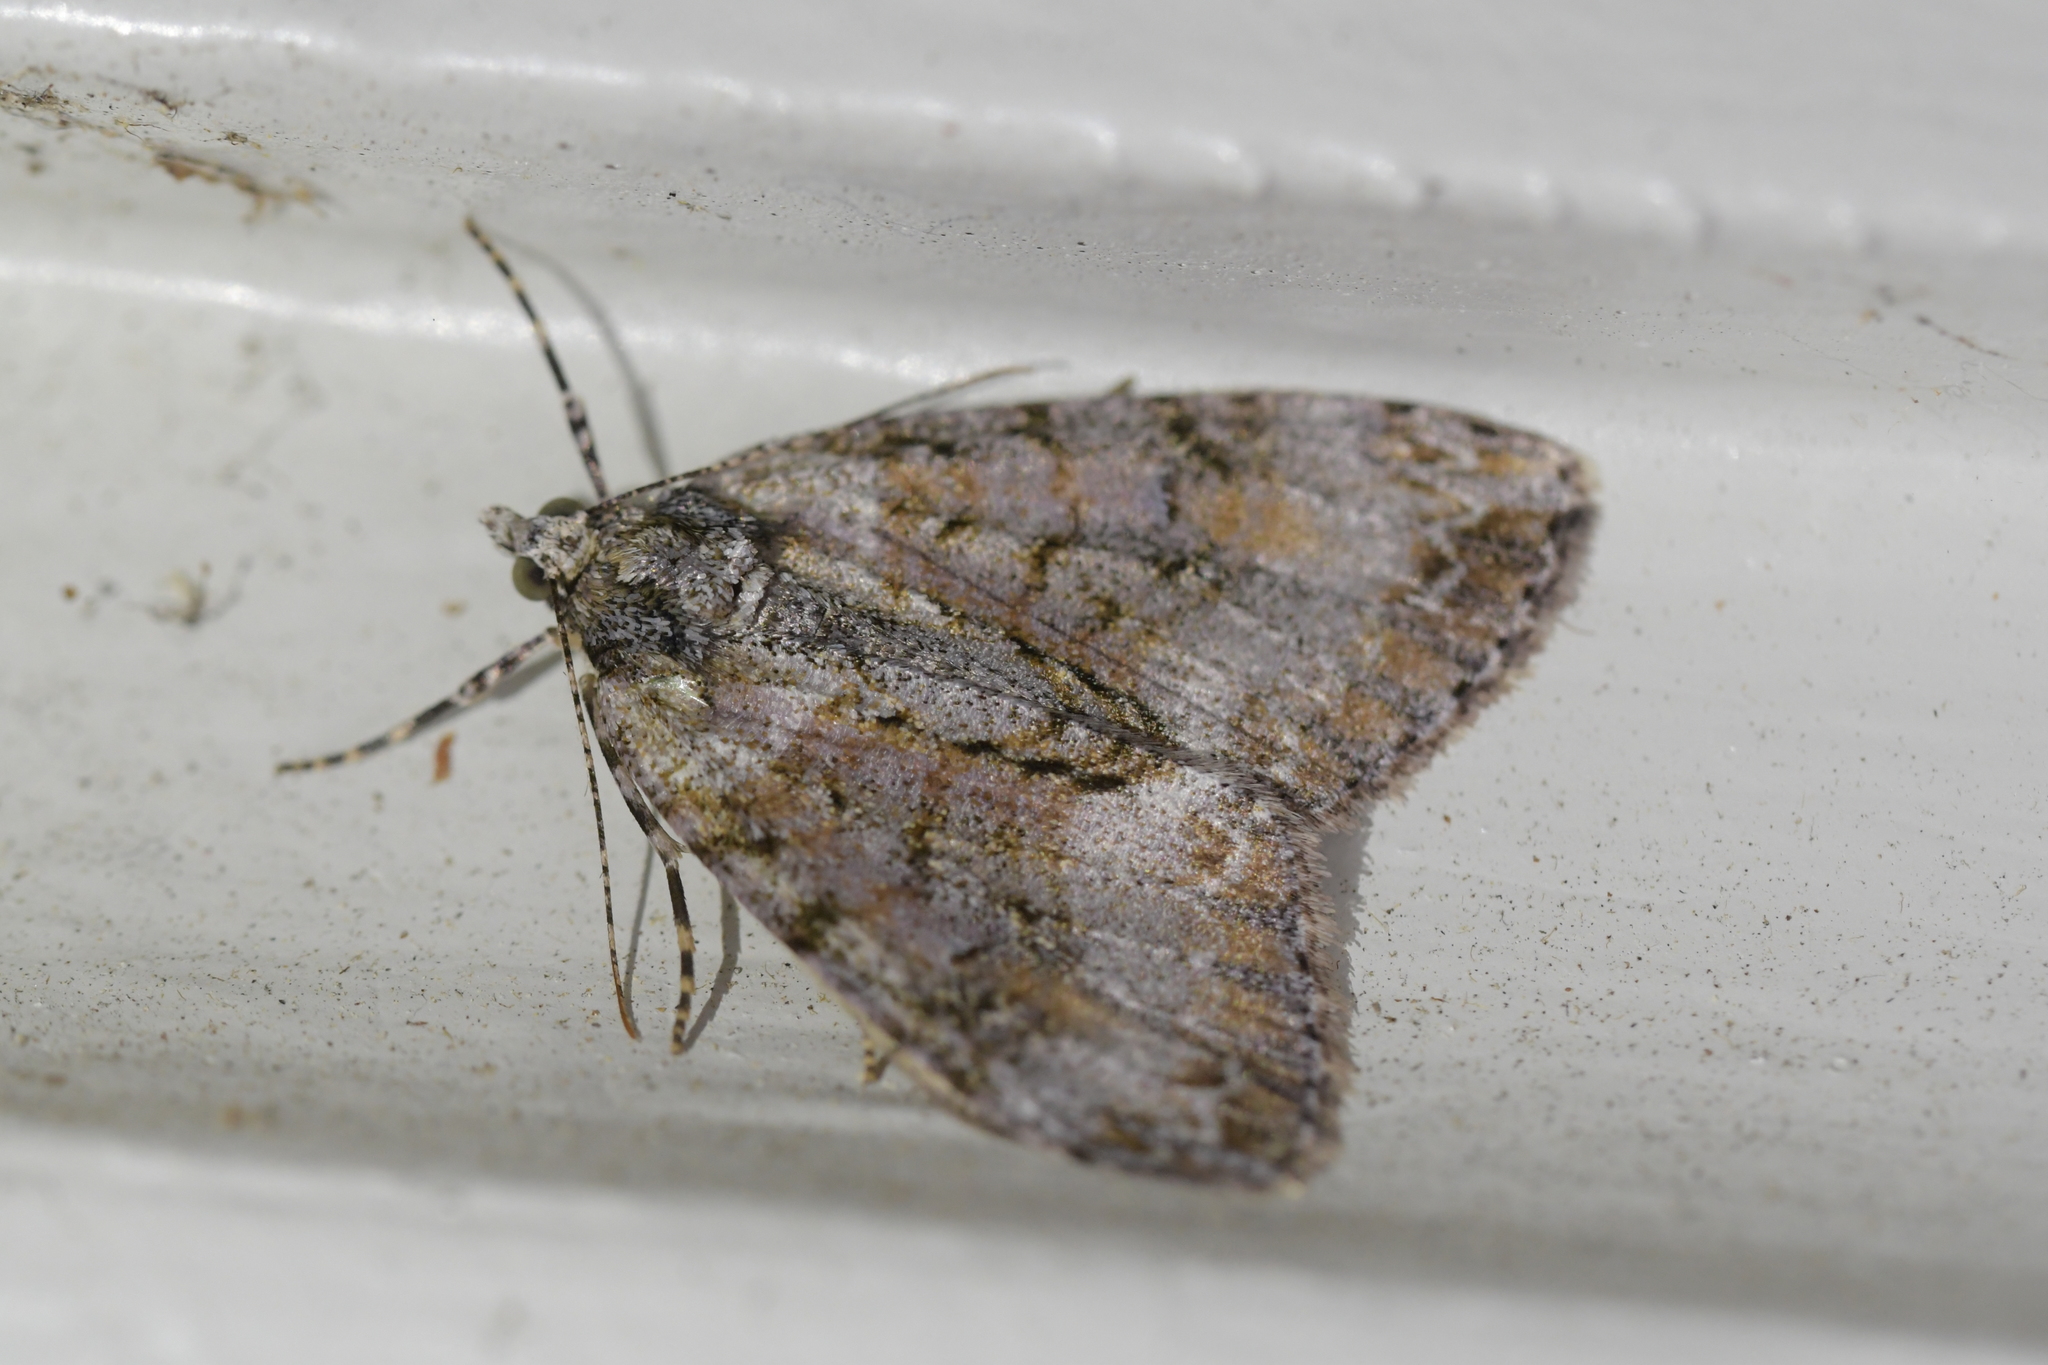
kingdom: Animalia
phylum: Arthropoda
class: Insecta
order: Lepidoptera
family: Geometridae
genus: Pseudocoremia
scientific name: Pseudocoremia suavis
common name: Common forest looper
